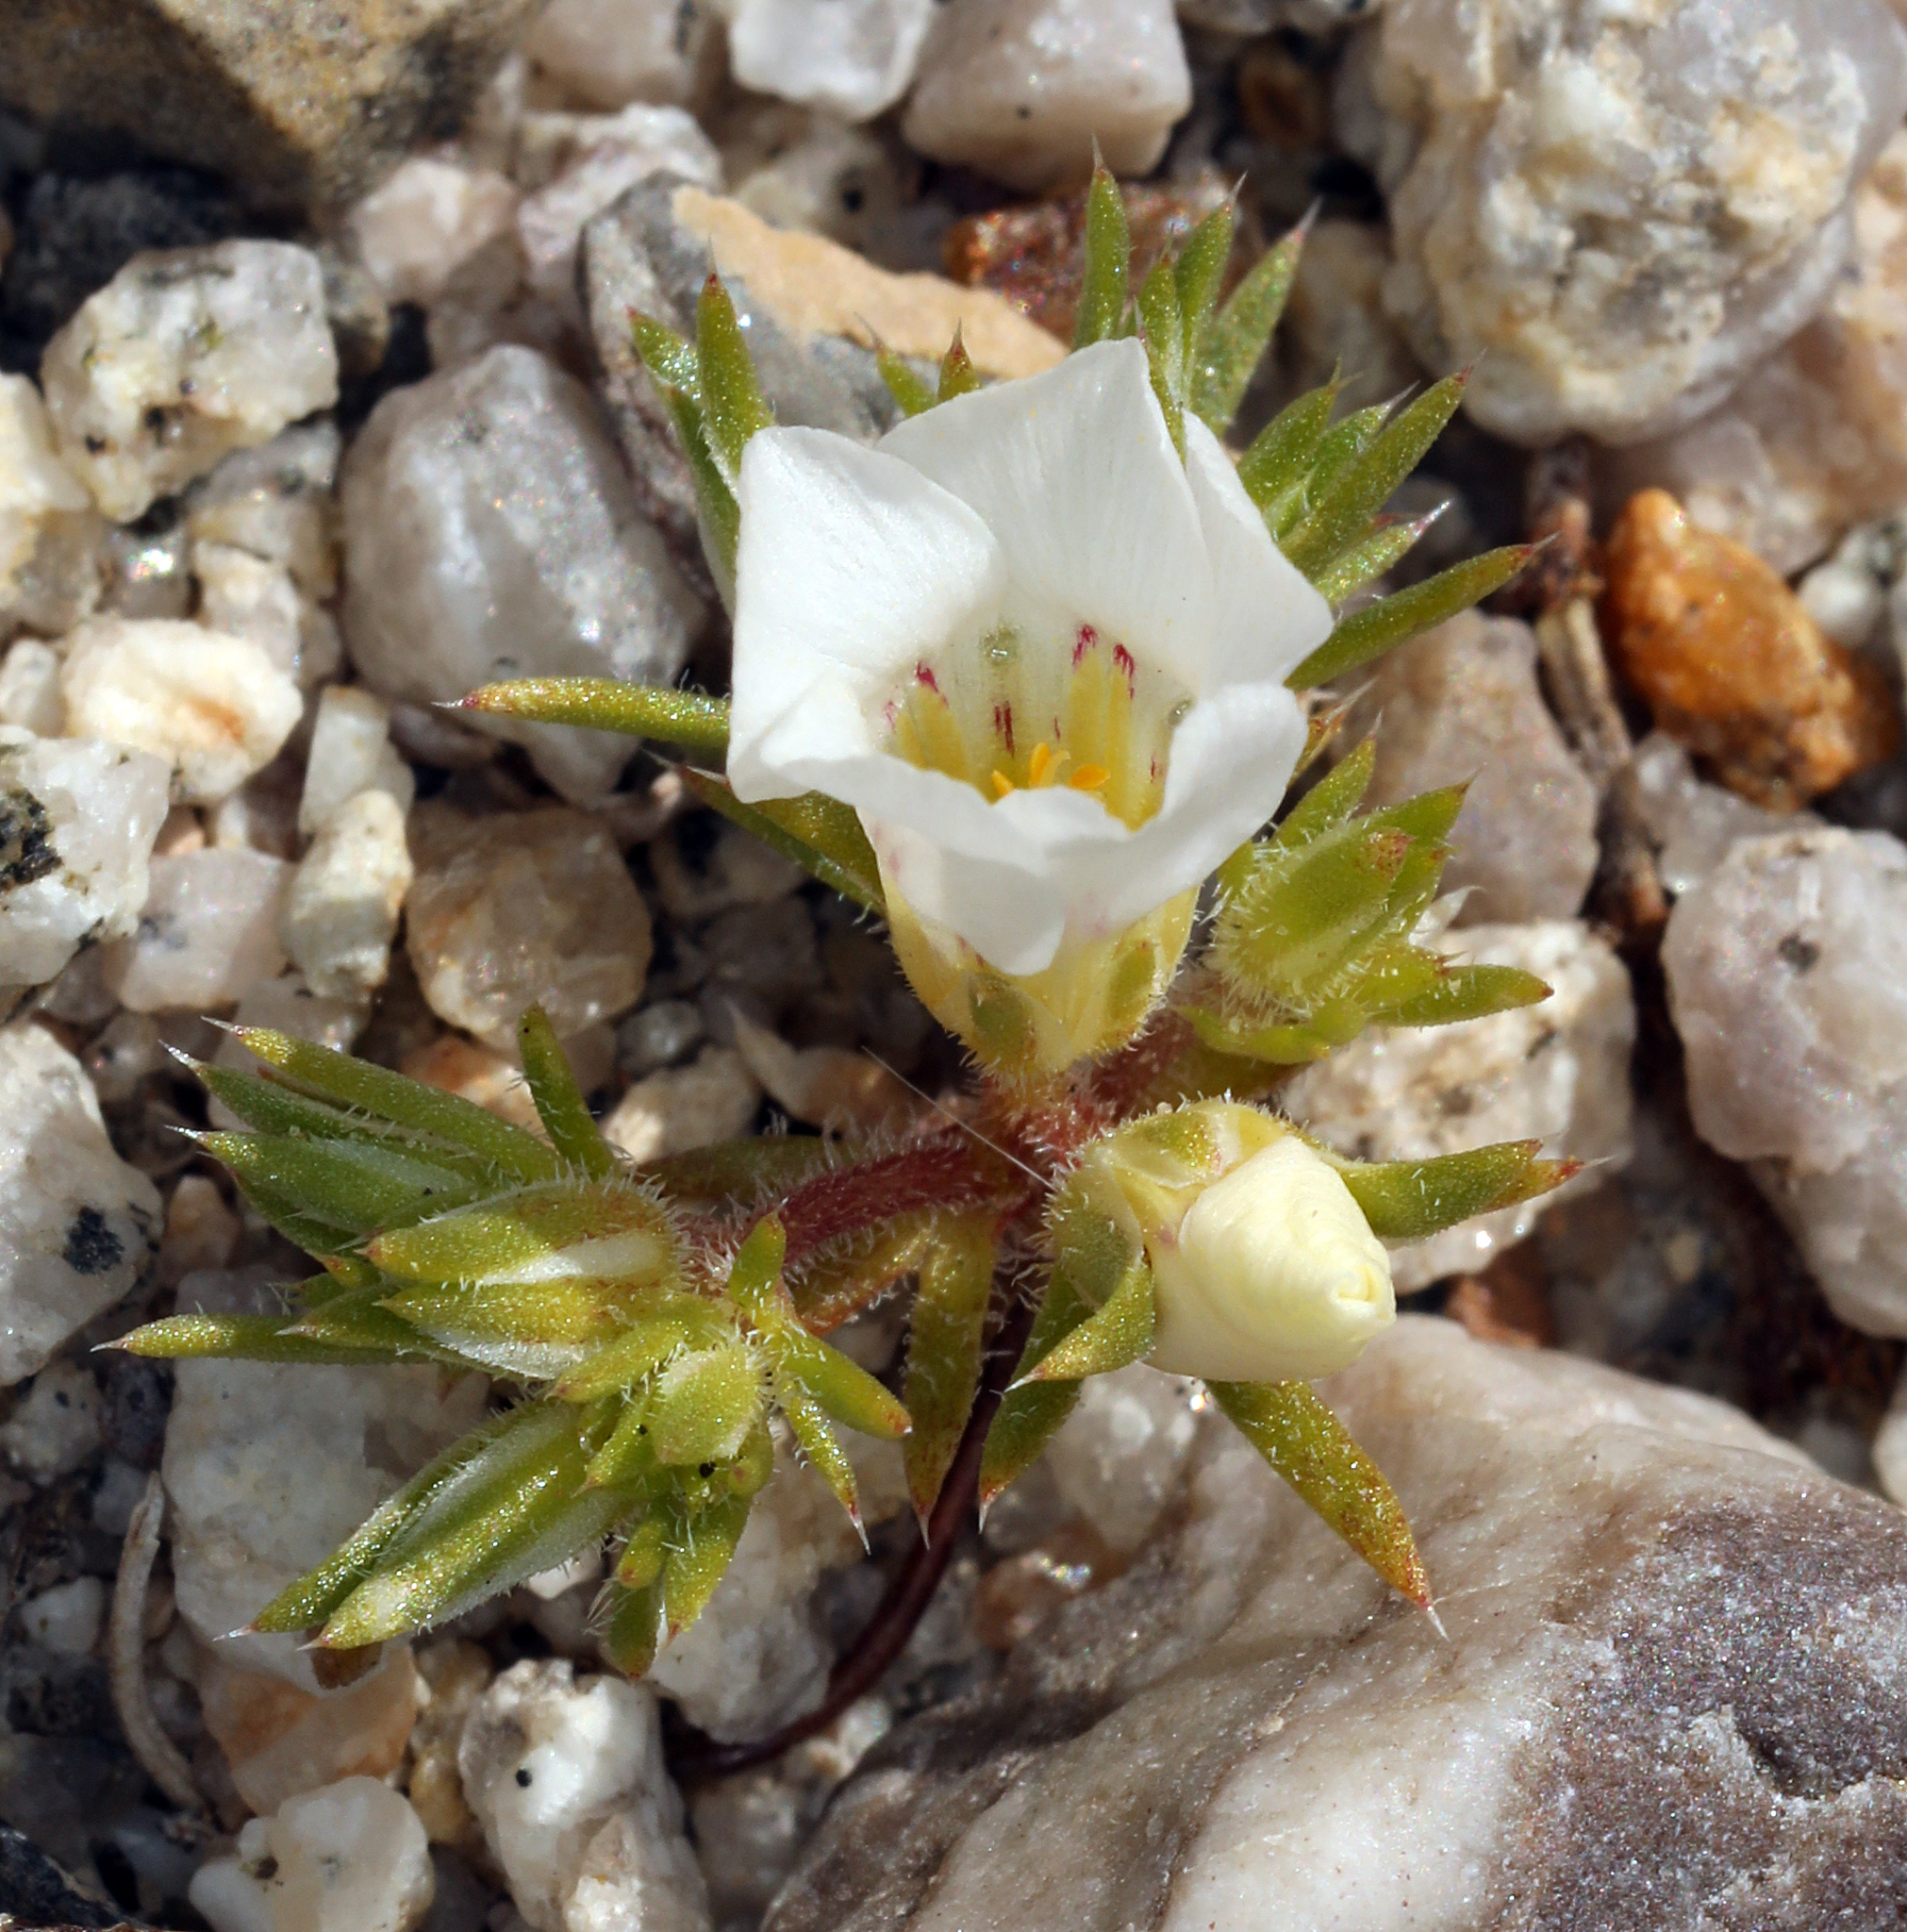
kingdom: Plantae
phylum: Tracheophyta
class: Magnoliopsida
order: Ericales
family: Polemoniaceae
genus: Linanthus
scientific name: Linanthus demissus
